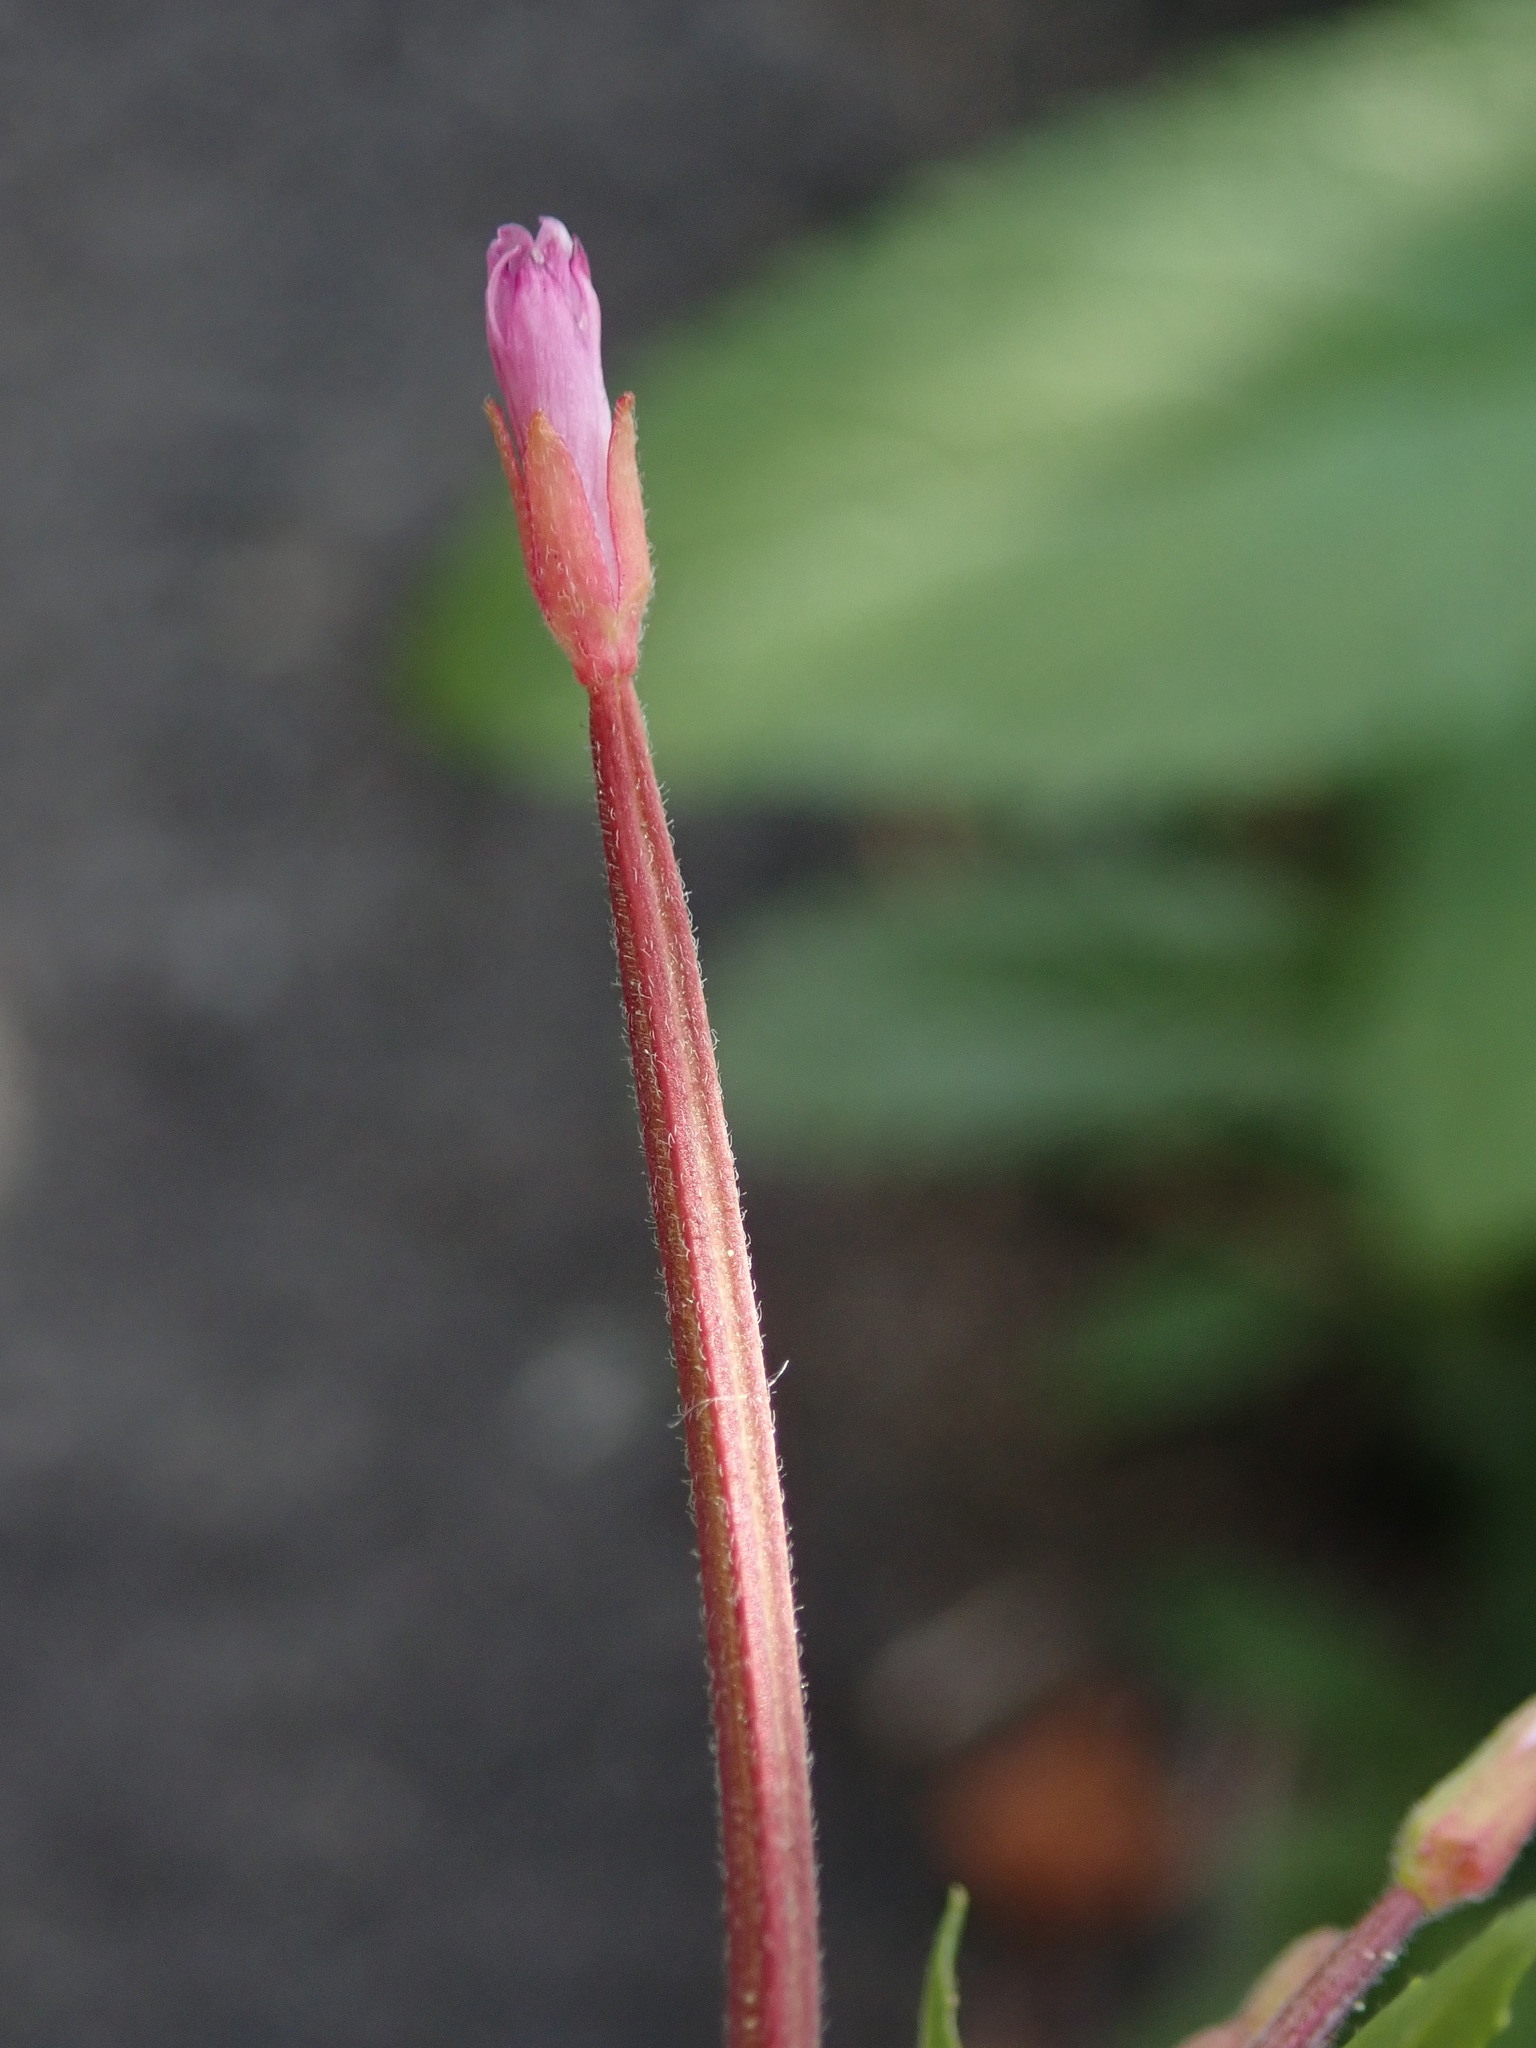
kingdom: Plantae
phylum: Tracheophyta
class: Magnoliopsida
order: Myrtales
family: Onagraceae
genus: Epilobium
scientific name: Epilobium ciliatum
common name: American willowherb
